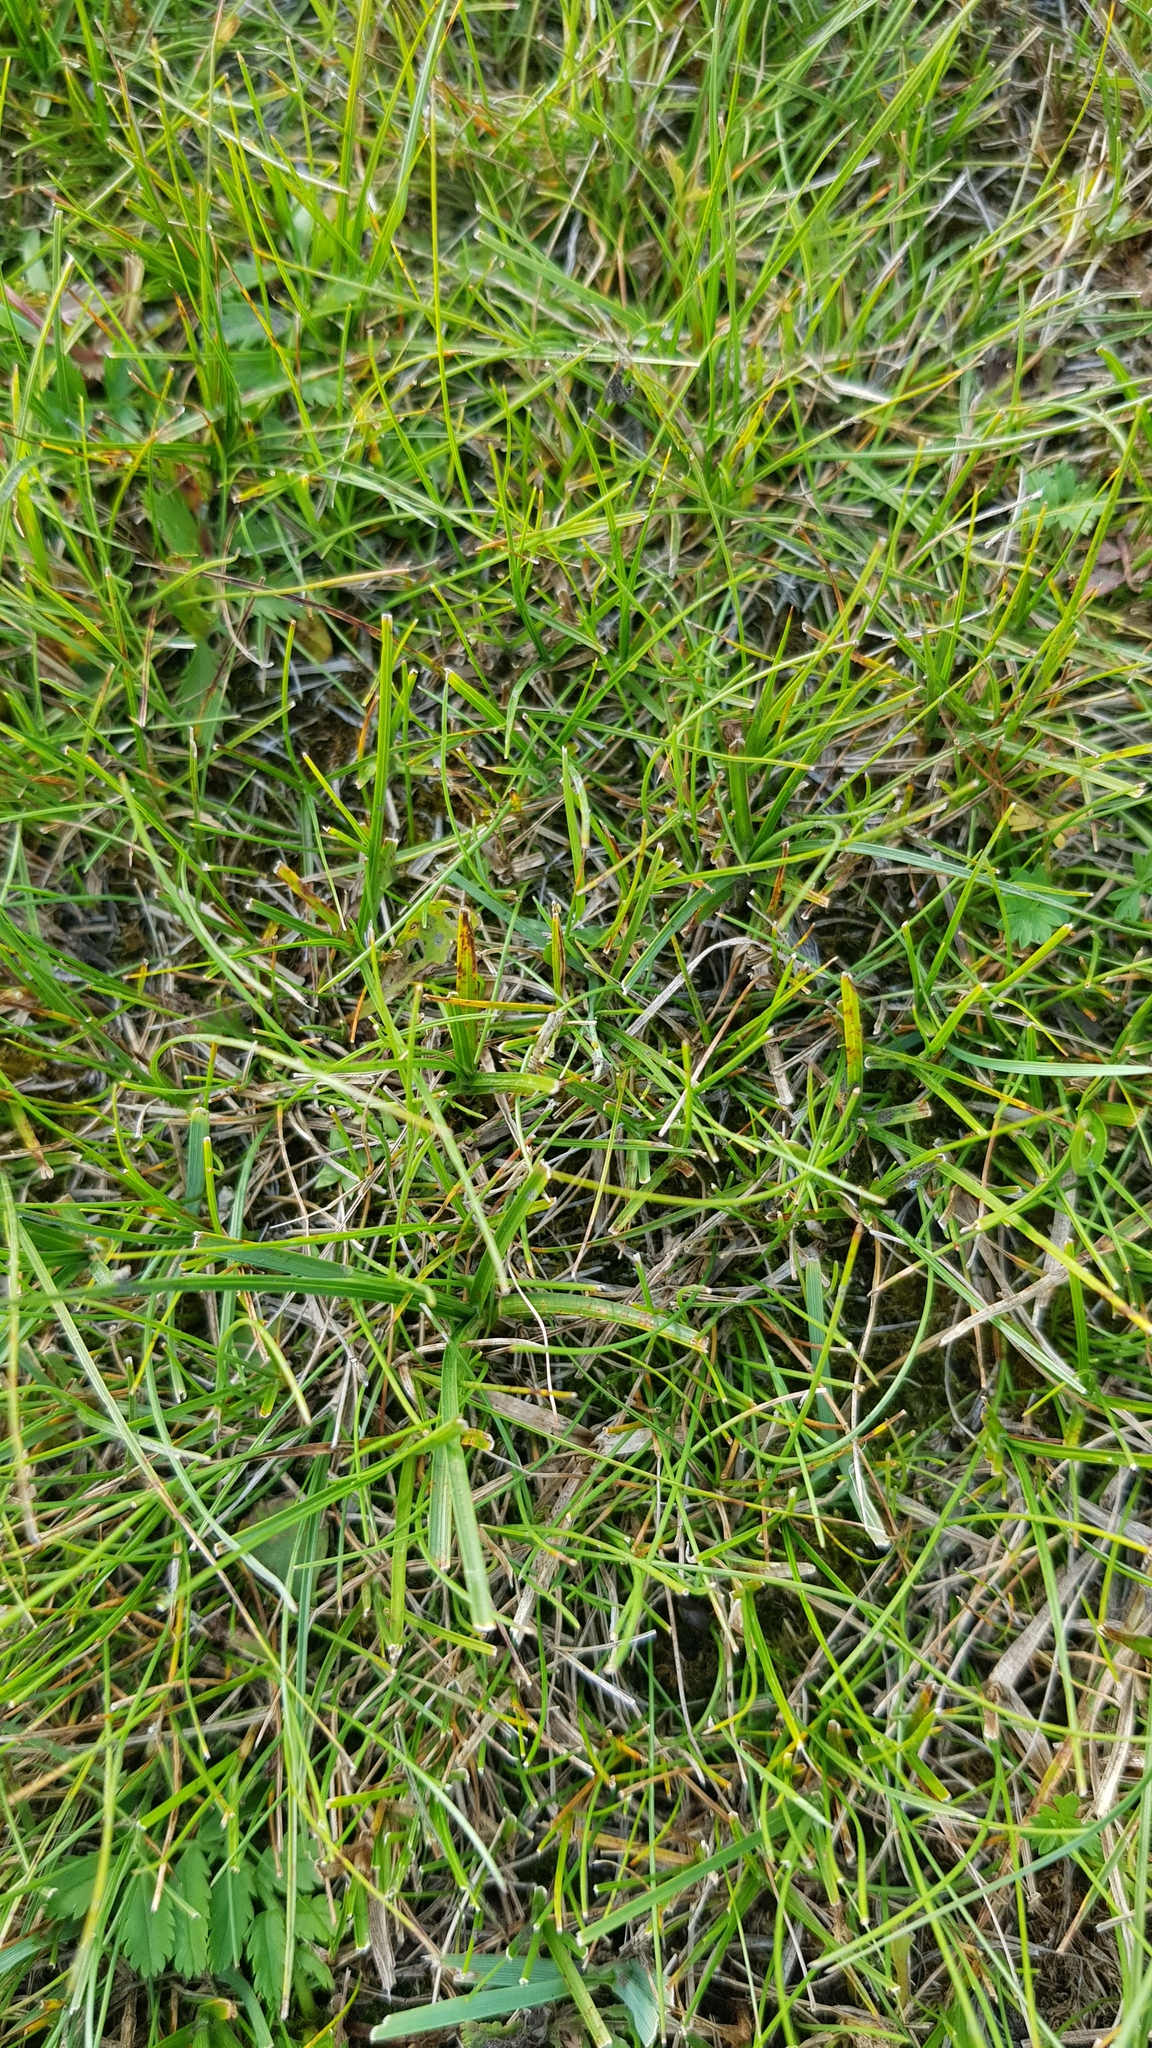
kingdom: Plantae
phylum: Tracheophyta
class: Liliopsida
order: Poales
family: Cyperaceae
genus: Carex
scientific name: Carex duriuscula
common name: Involute-leaved sedge
